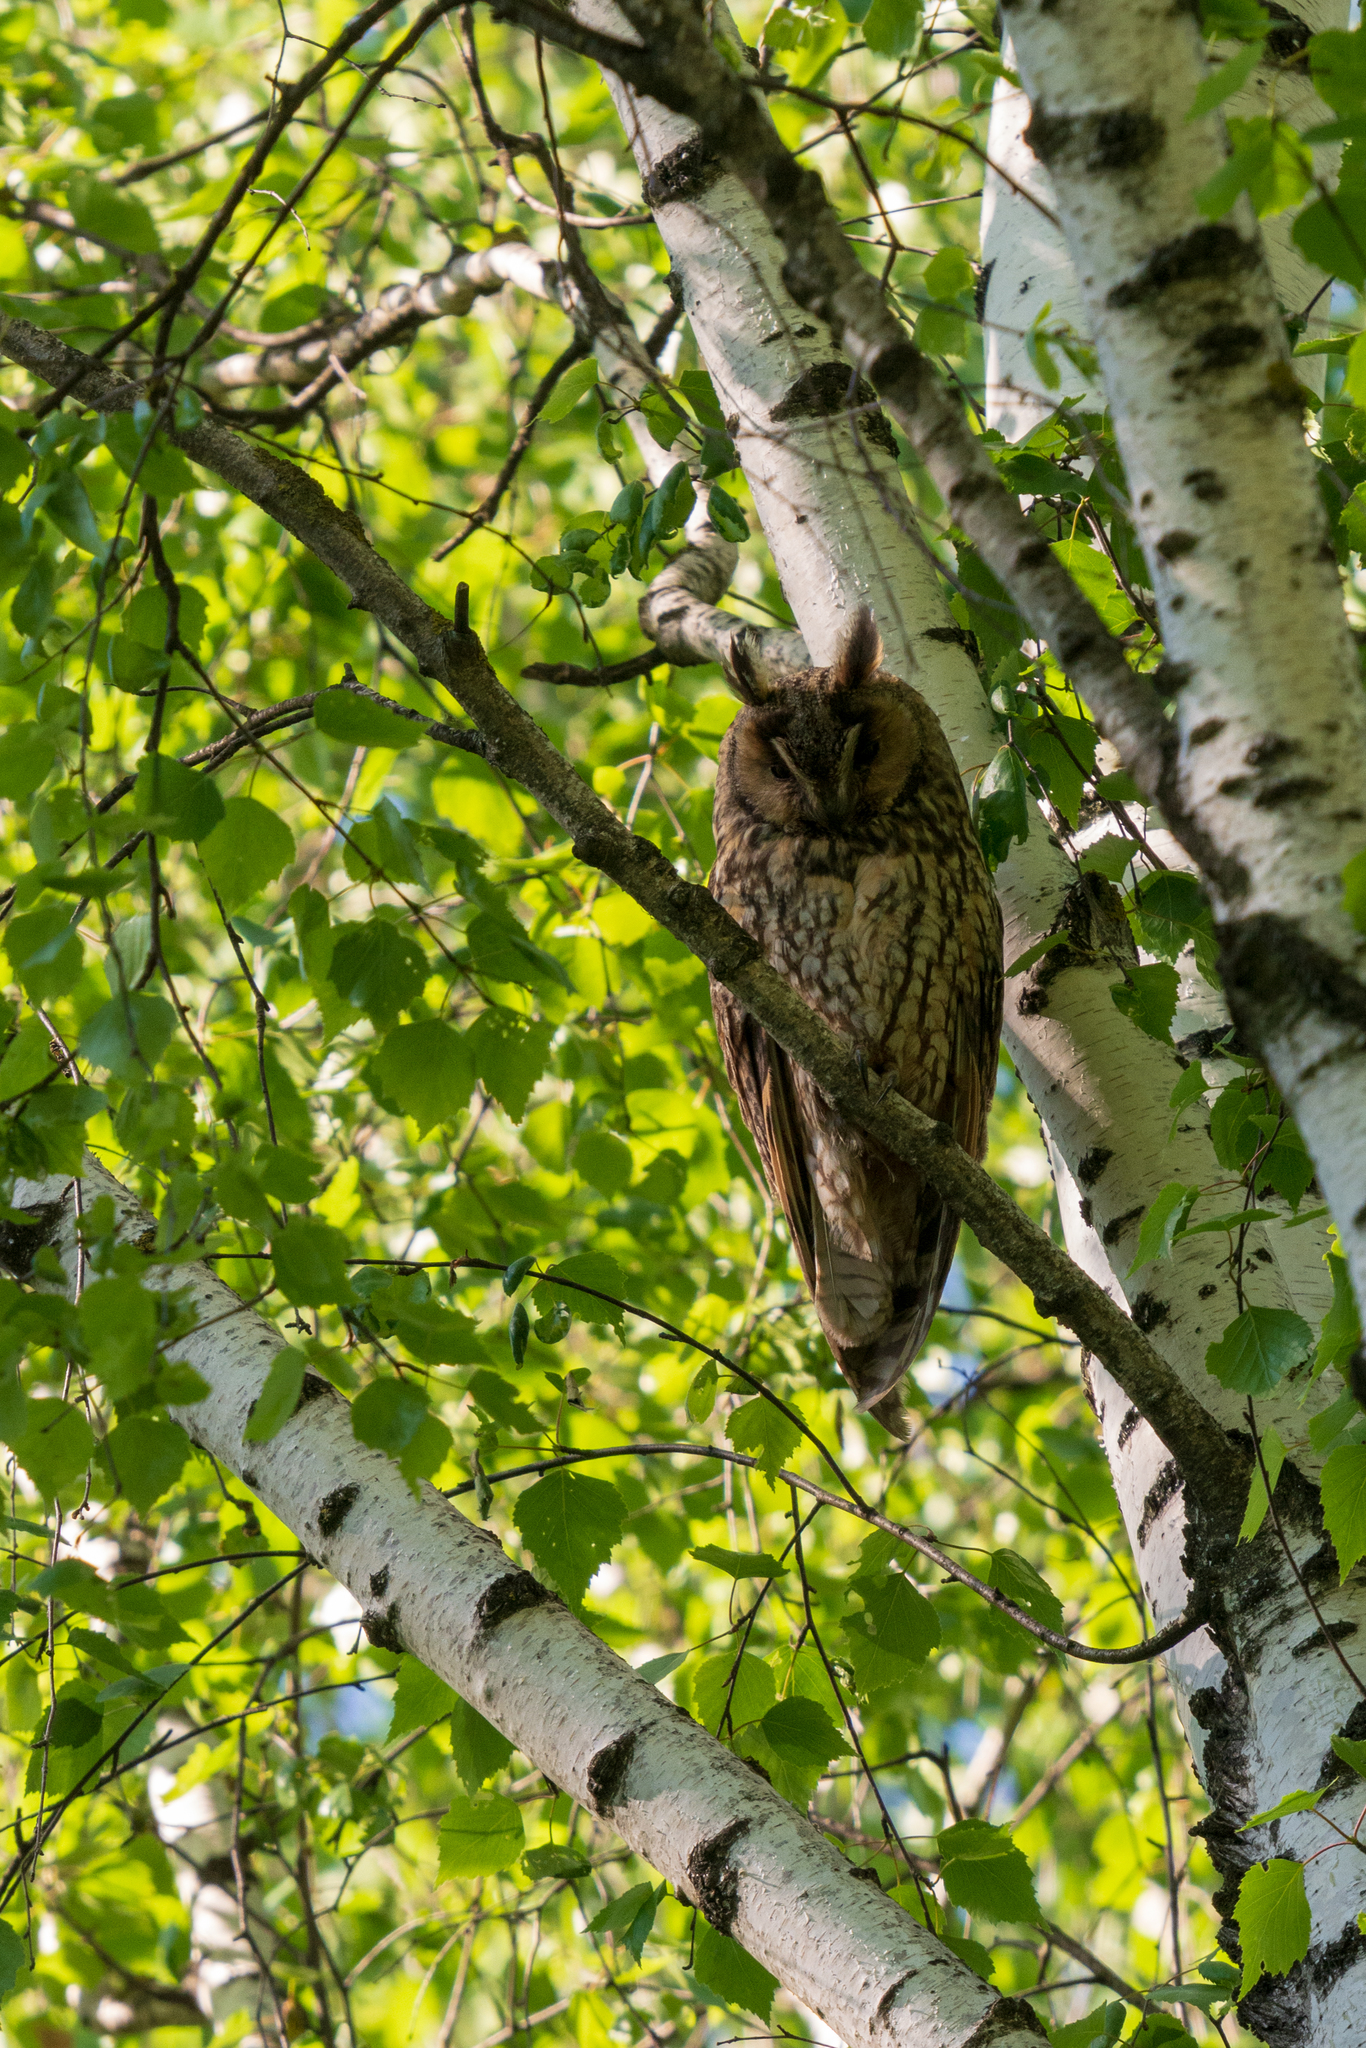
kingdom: Animalia
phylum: Chordata
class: Aves
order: Strigiformes
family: Strigidae
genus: Asio
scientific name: Asio otus
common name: Long-eared owl
